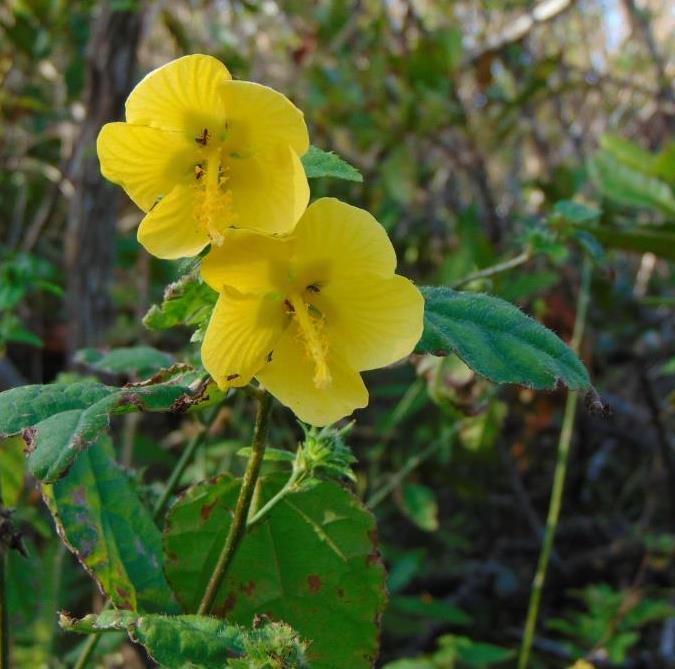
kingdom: Plantae
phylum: Tracheophyta
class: Magnoliopsida
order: Malvales
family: Malvaceae
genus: Pavonia
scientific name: Pavonia spinifex
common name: Ginger bush
